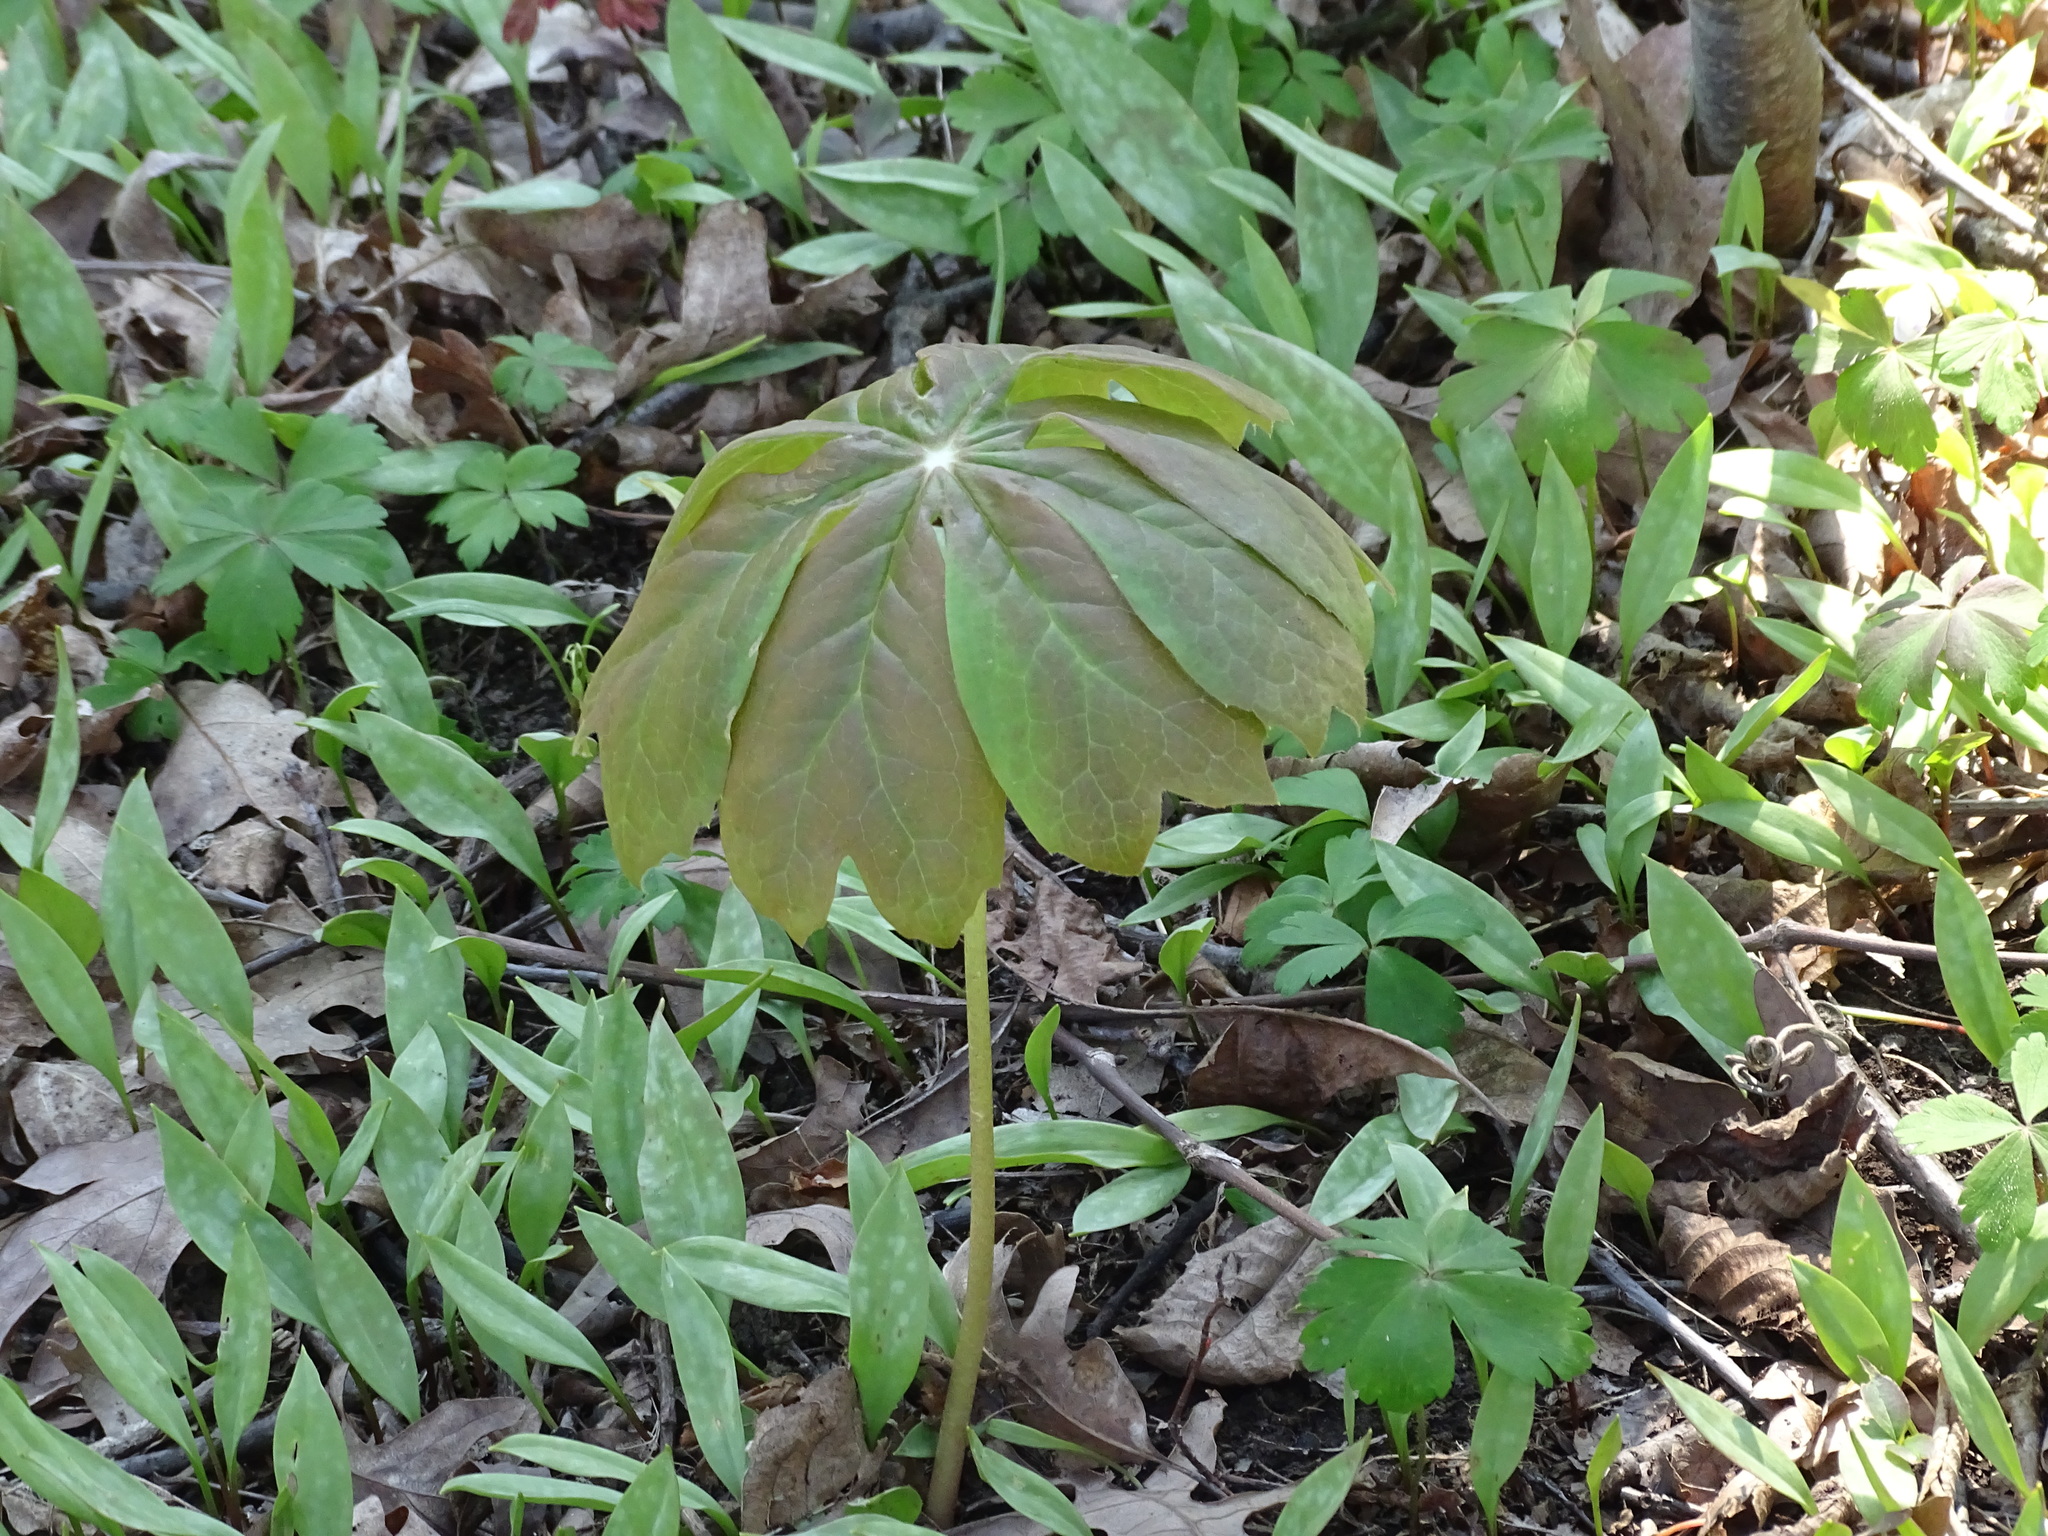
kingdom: Plantae
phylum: Tracheophyta
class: Magnoliopsida
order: Ranunculales
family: Berberidaceae
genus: Podophyllum
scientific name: Podophyllum peltatum
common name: Wild mandrake
